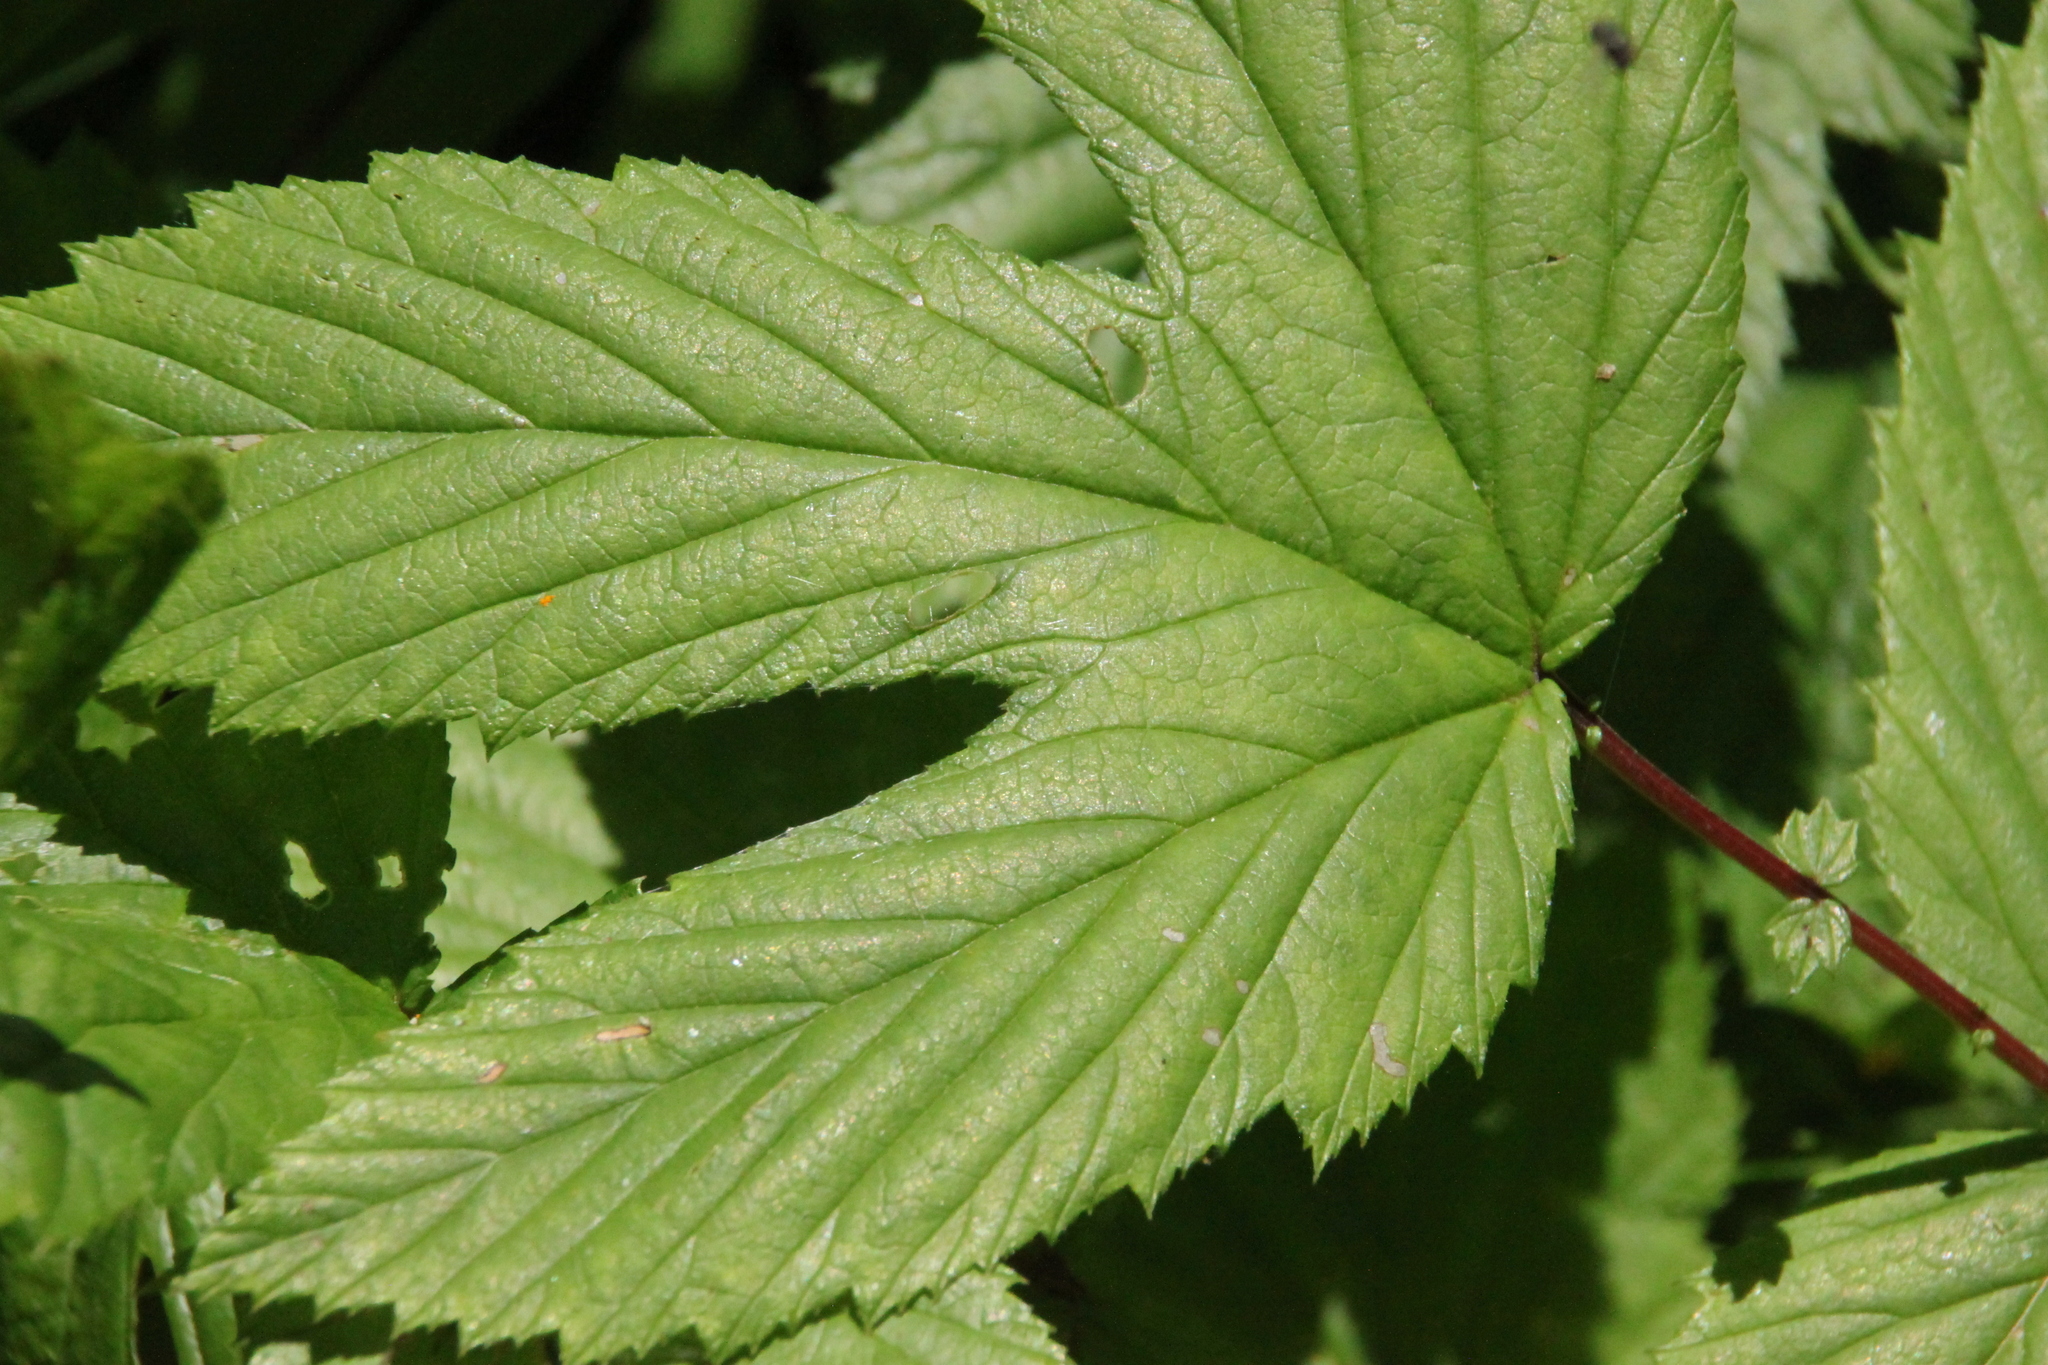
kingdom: Plantae
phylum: Tracheophyta
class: Magnoliopsida
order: Rosales
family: Rosaceae
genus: Filipendula
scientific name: Filipendula ulmaria
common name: Meadowsweet
